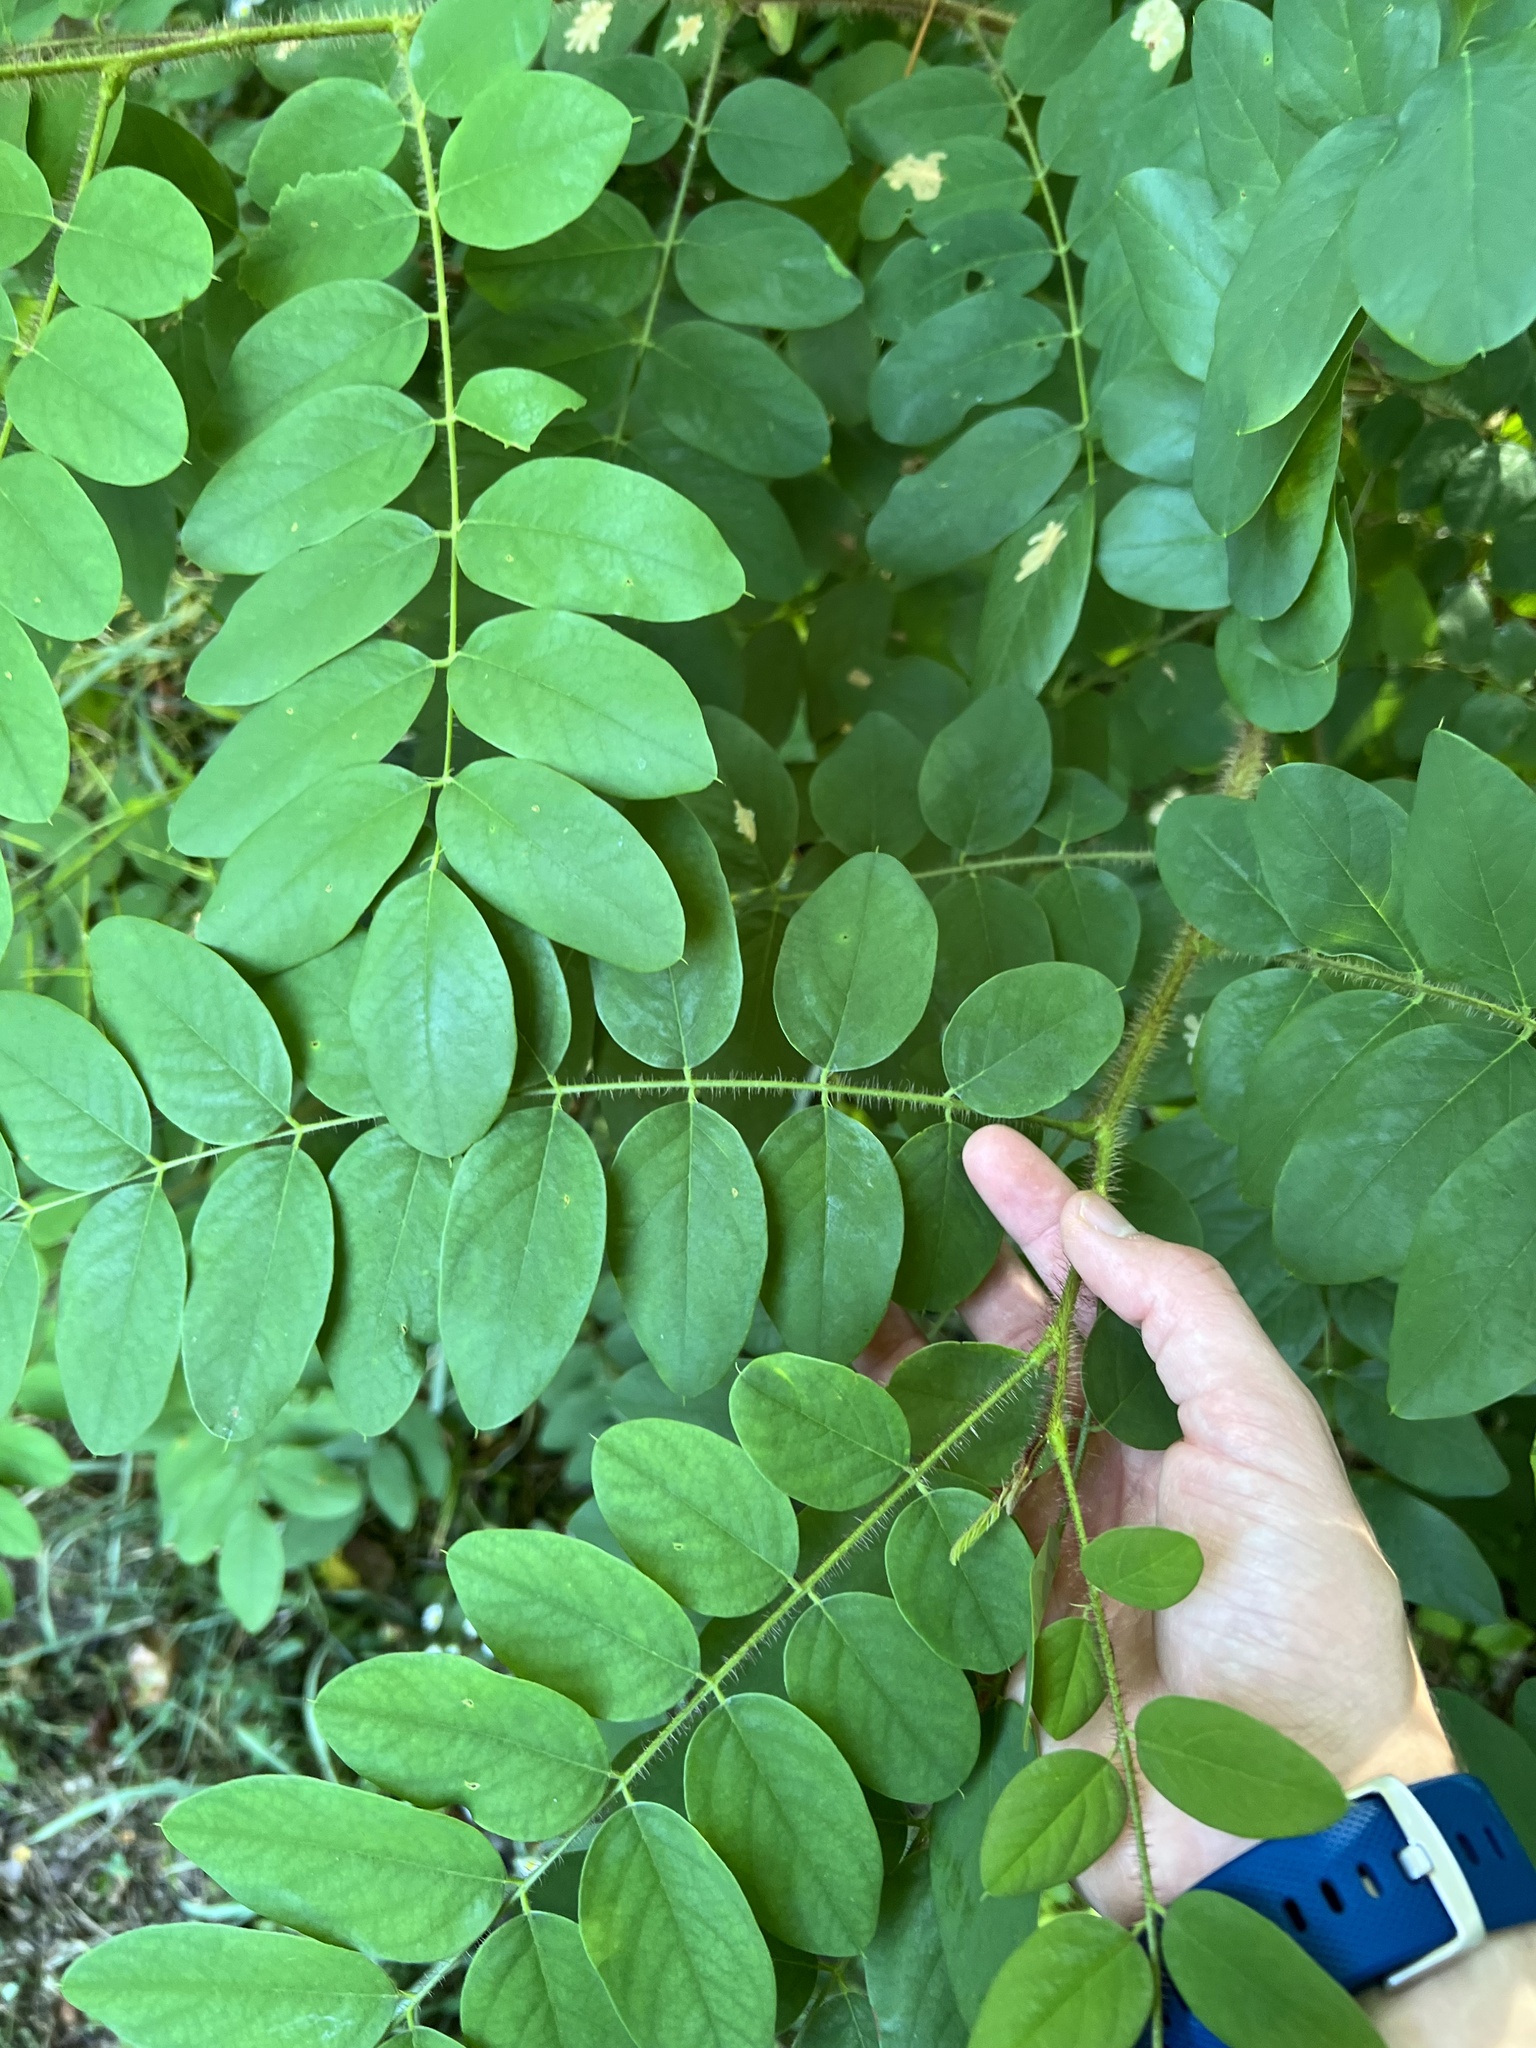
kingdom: Plantae
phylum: Tracheophyta
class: Magnoliopsida
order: Fabales
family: Fabaceae
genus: Robinia
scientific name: Robinia hispida
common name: Bristly locust
